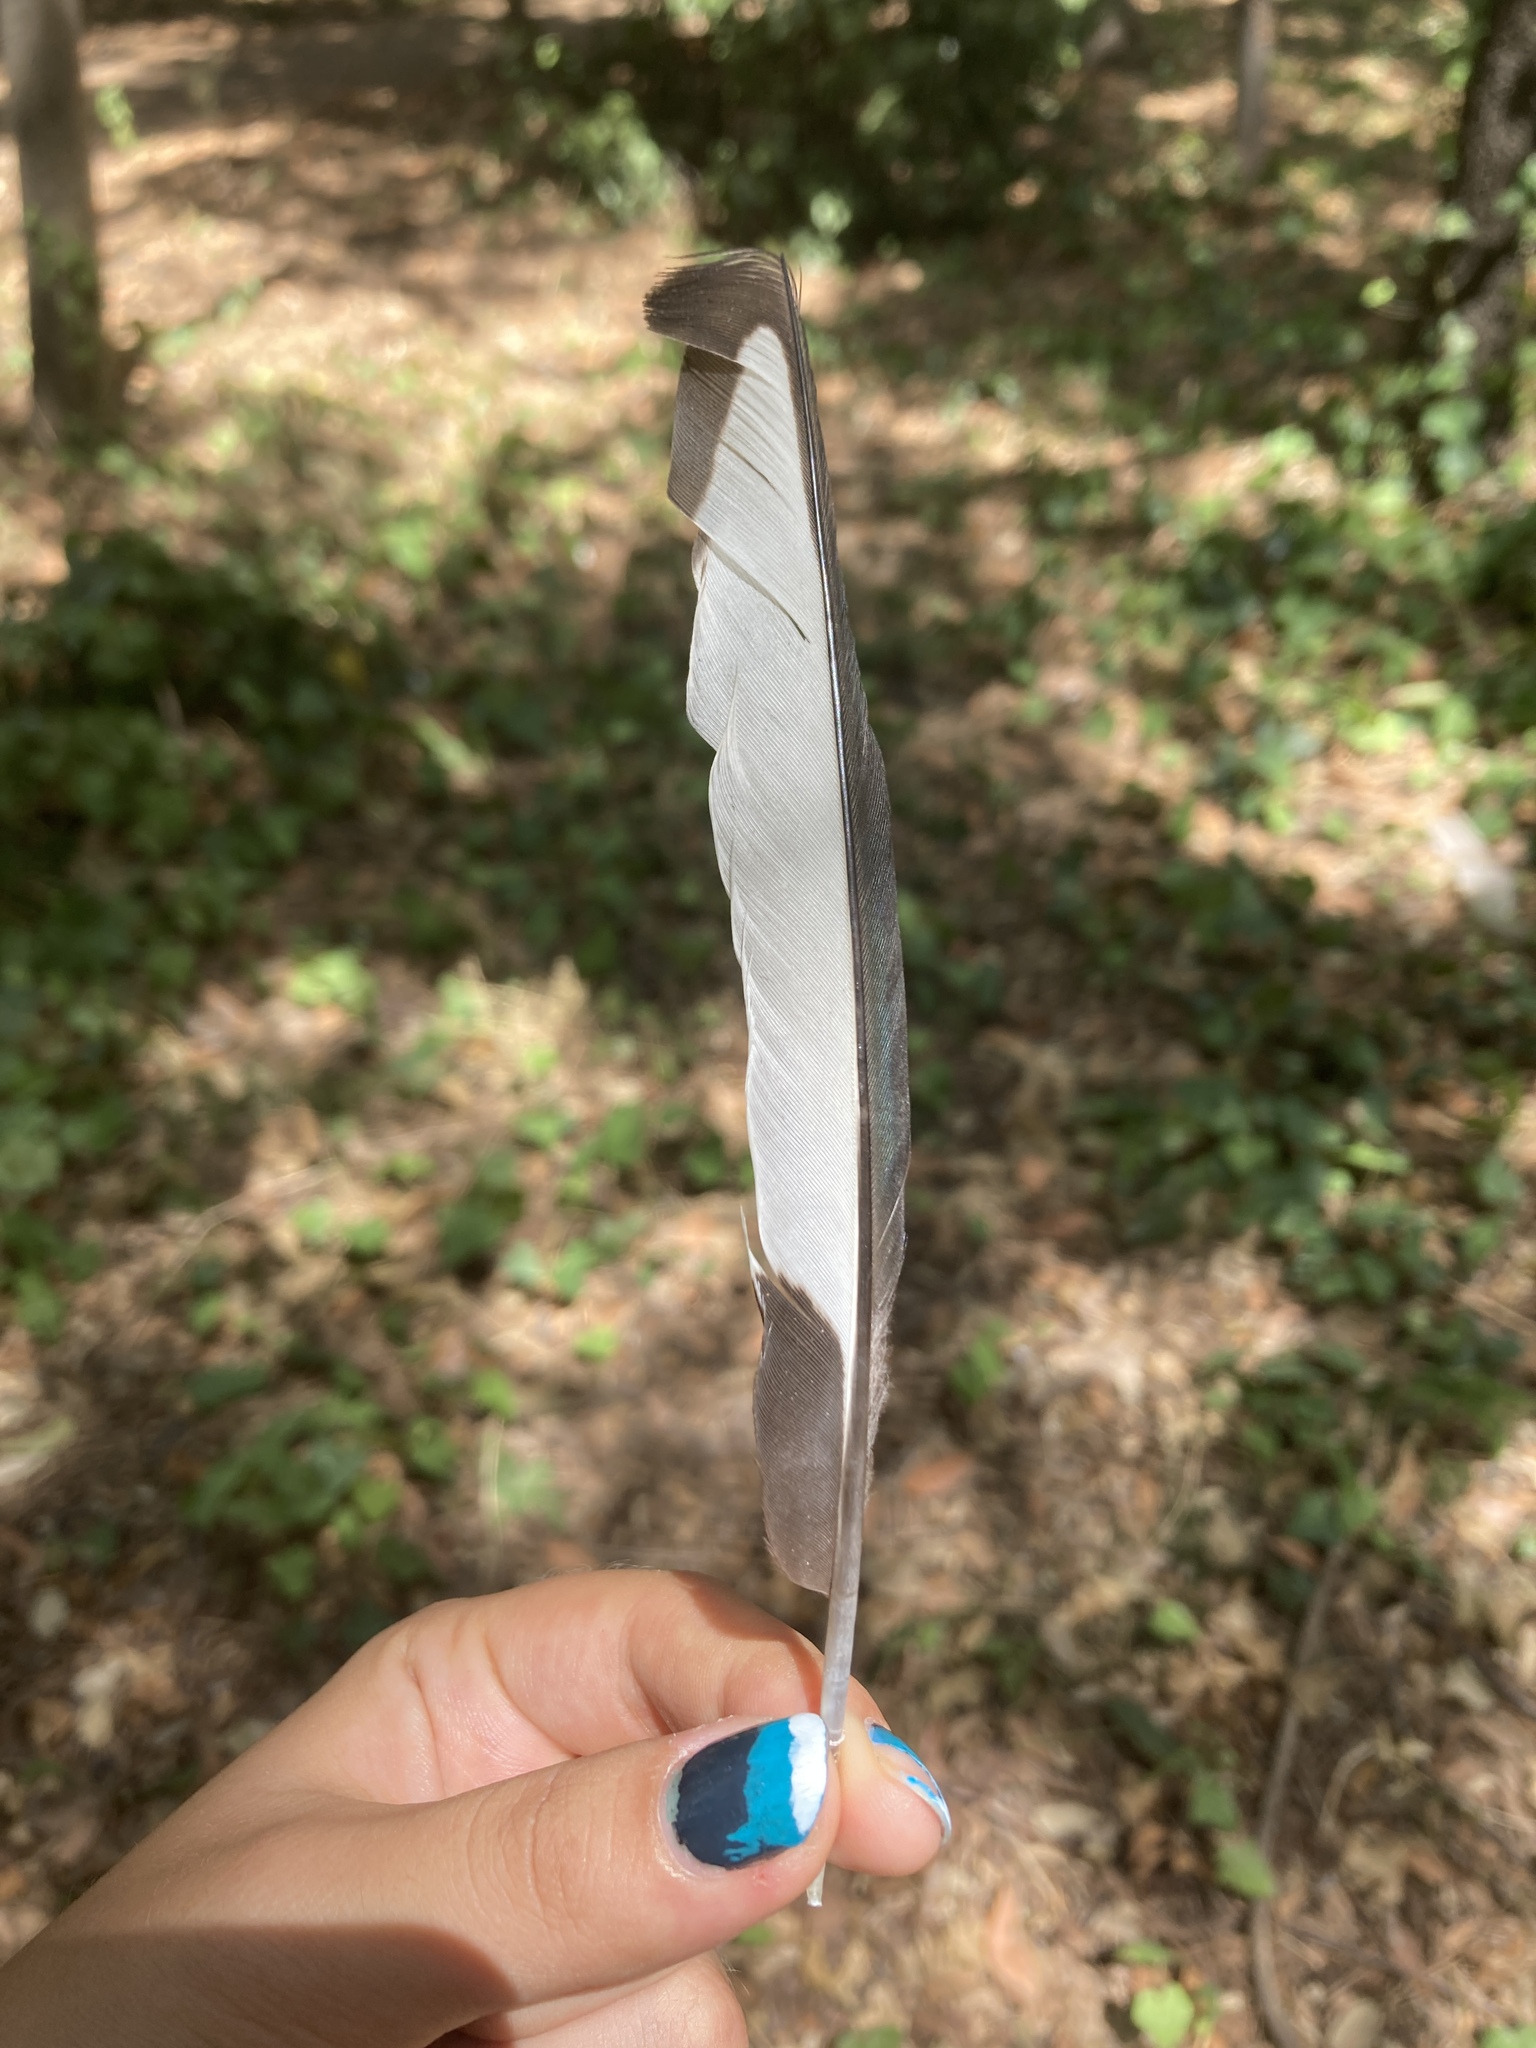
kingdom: Animalia
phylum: Chordata
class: Aves
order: Passeriformes
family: Corvidae
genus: Pica
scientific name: Pica pica
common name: Eurasian magpie
